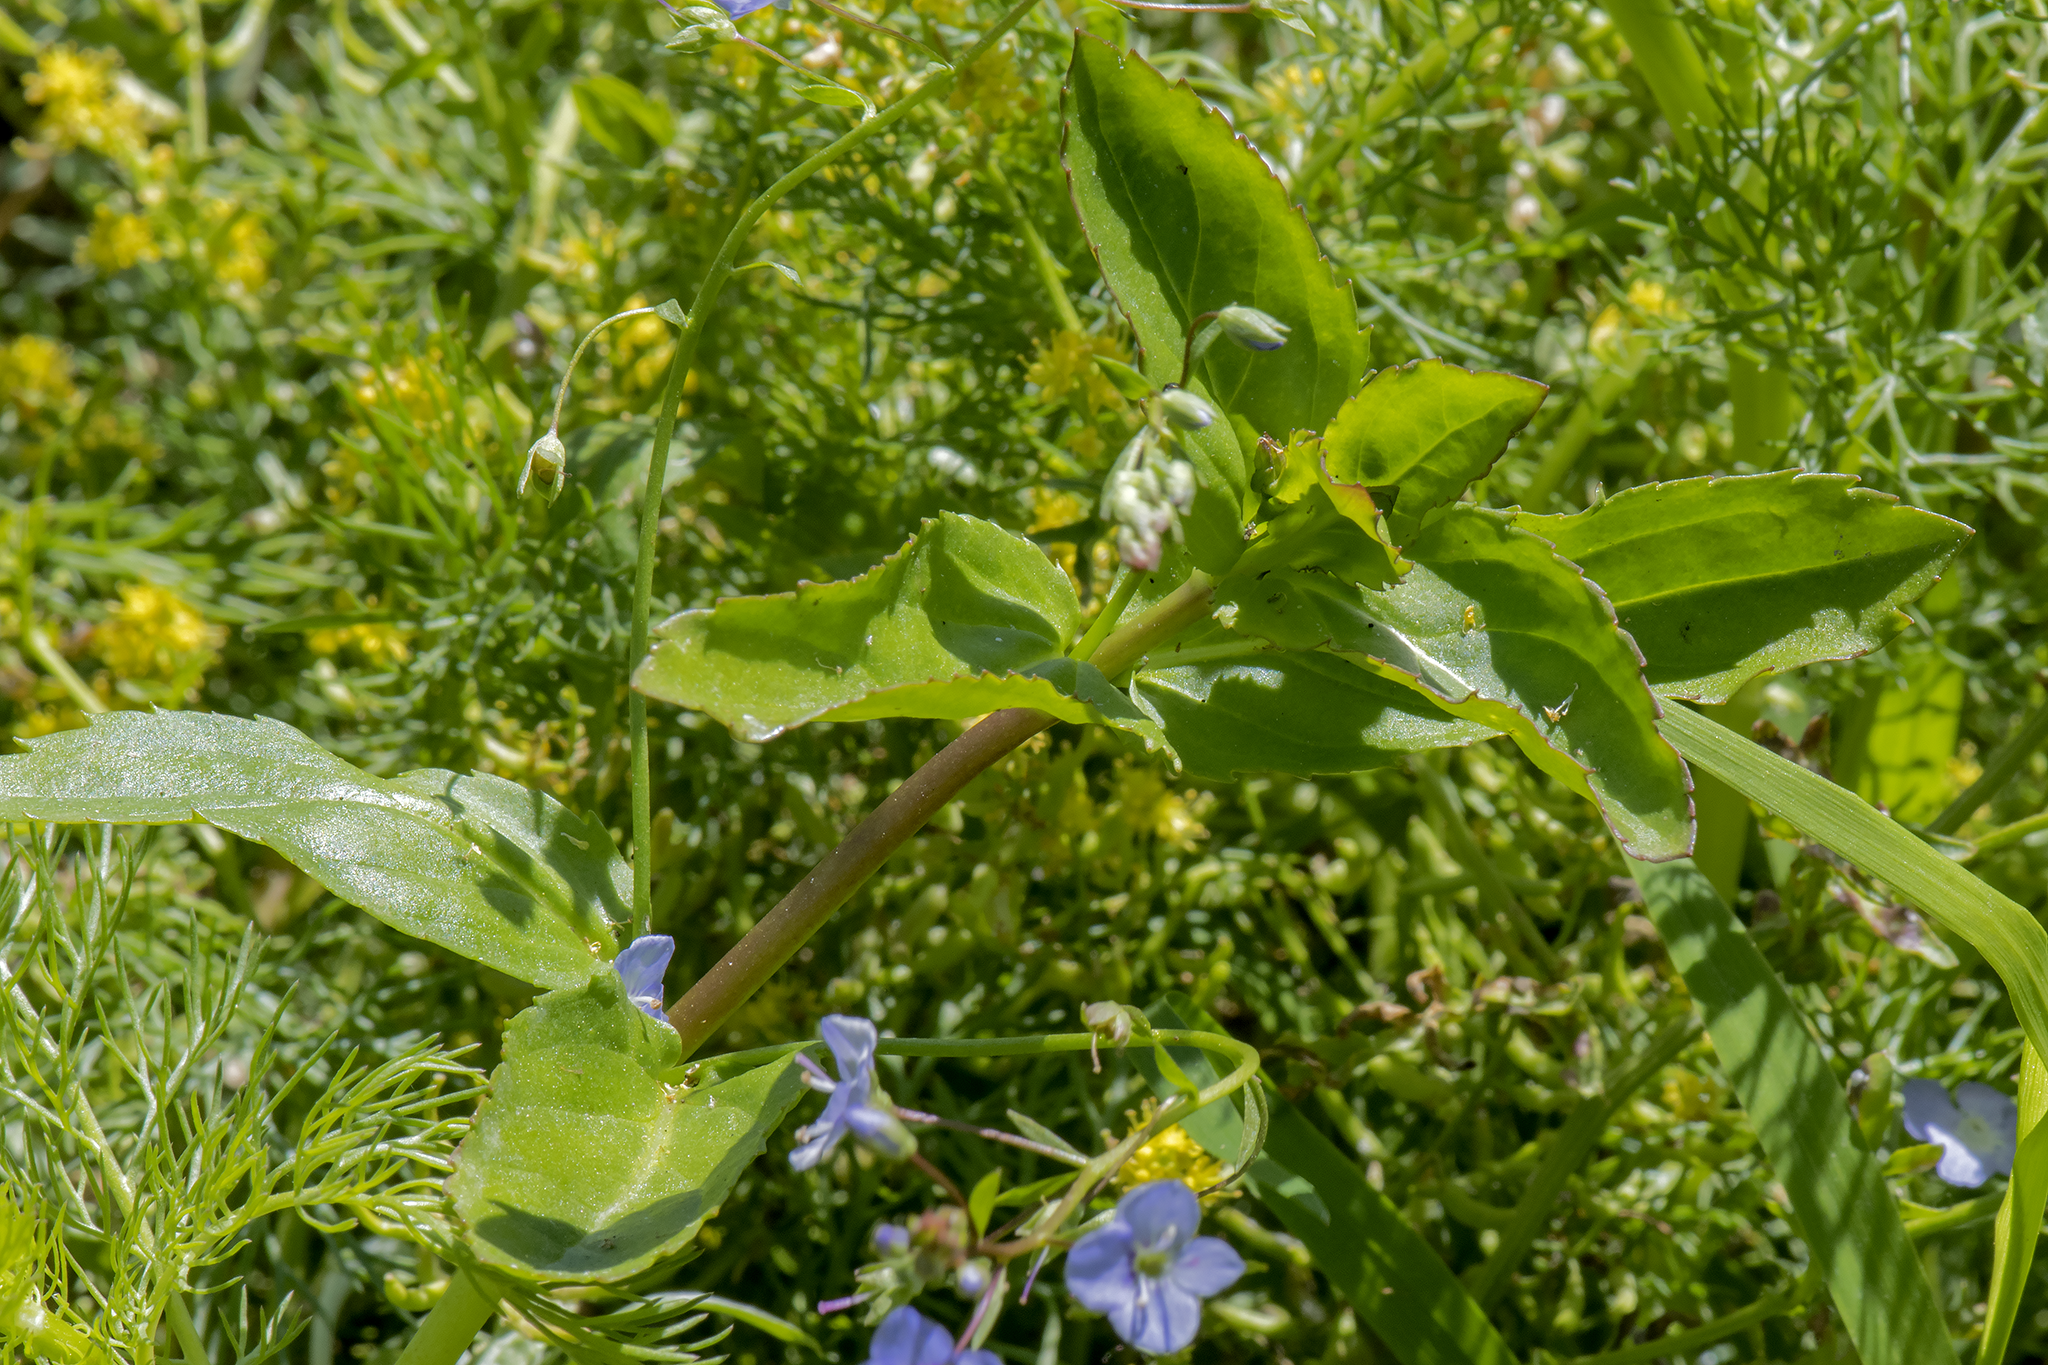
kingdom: Plantae
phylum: Tracheophyta
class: Magnoliopsida
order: Lamiales
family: Plantaginaceae
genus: Veronica
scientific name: Veronica americana
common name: American brooklime
